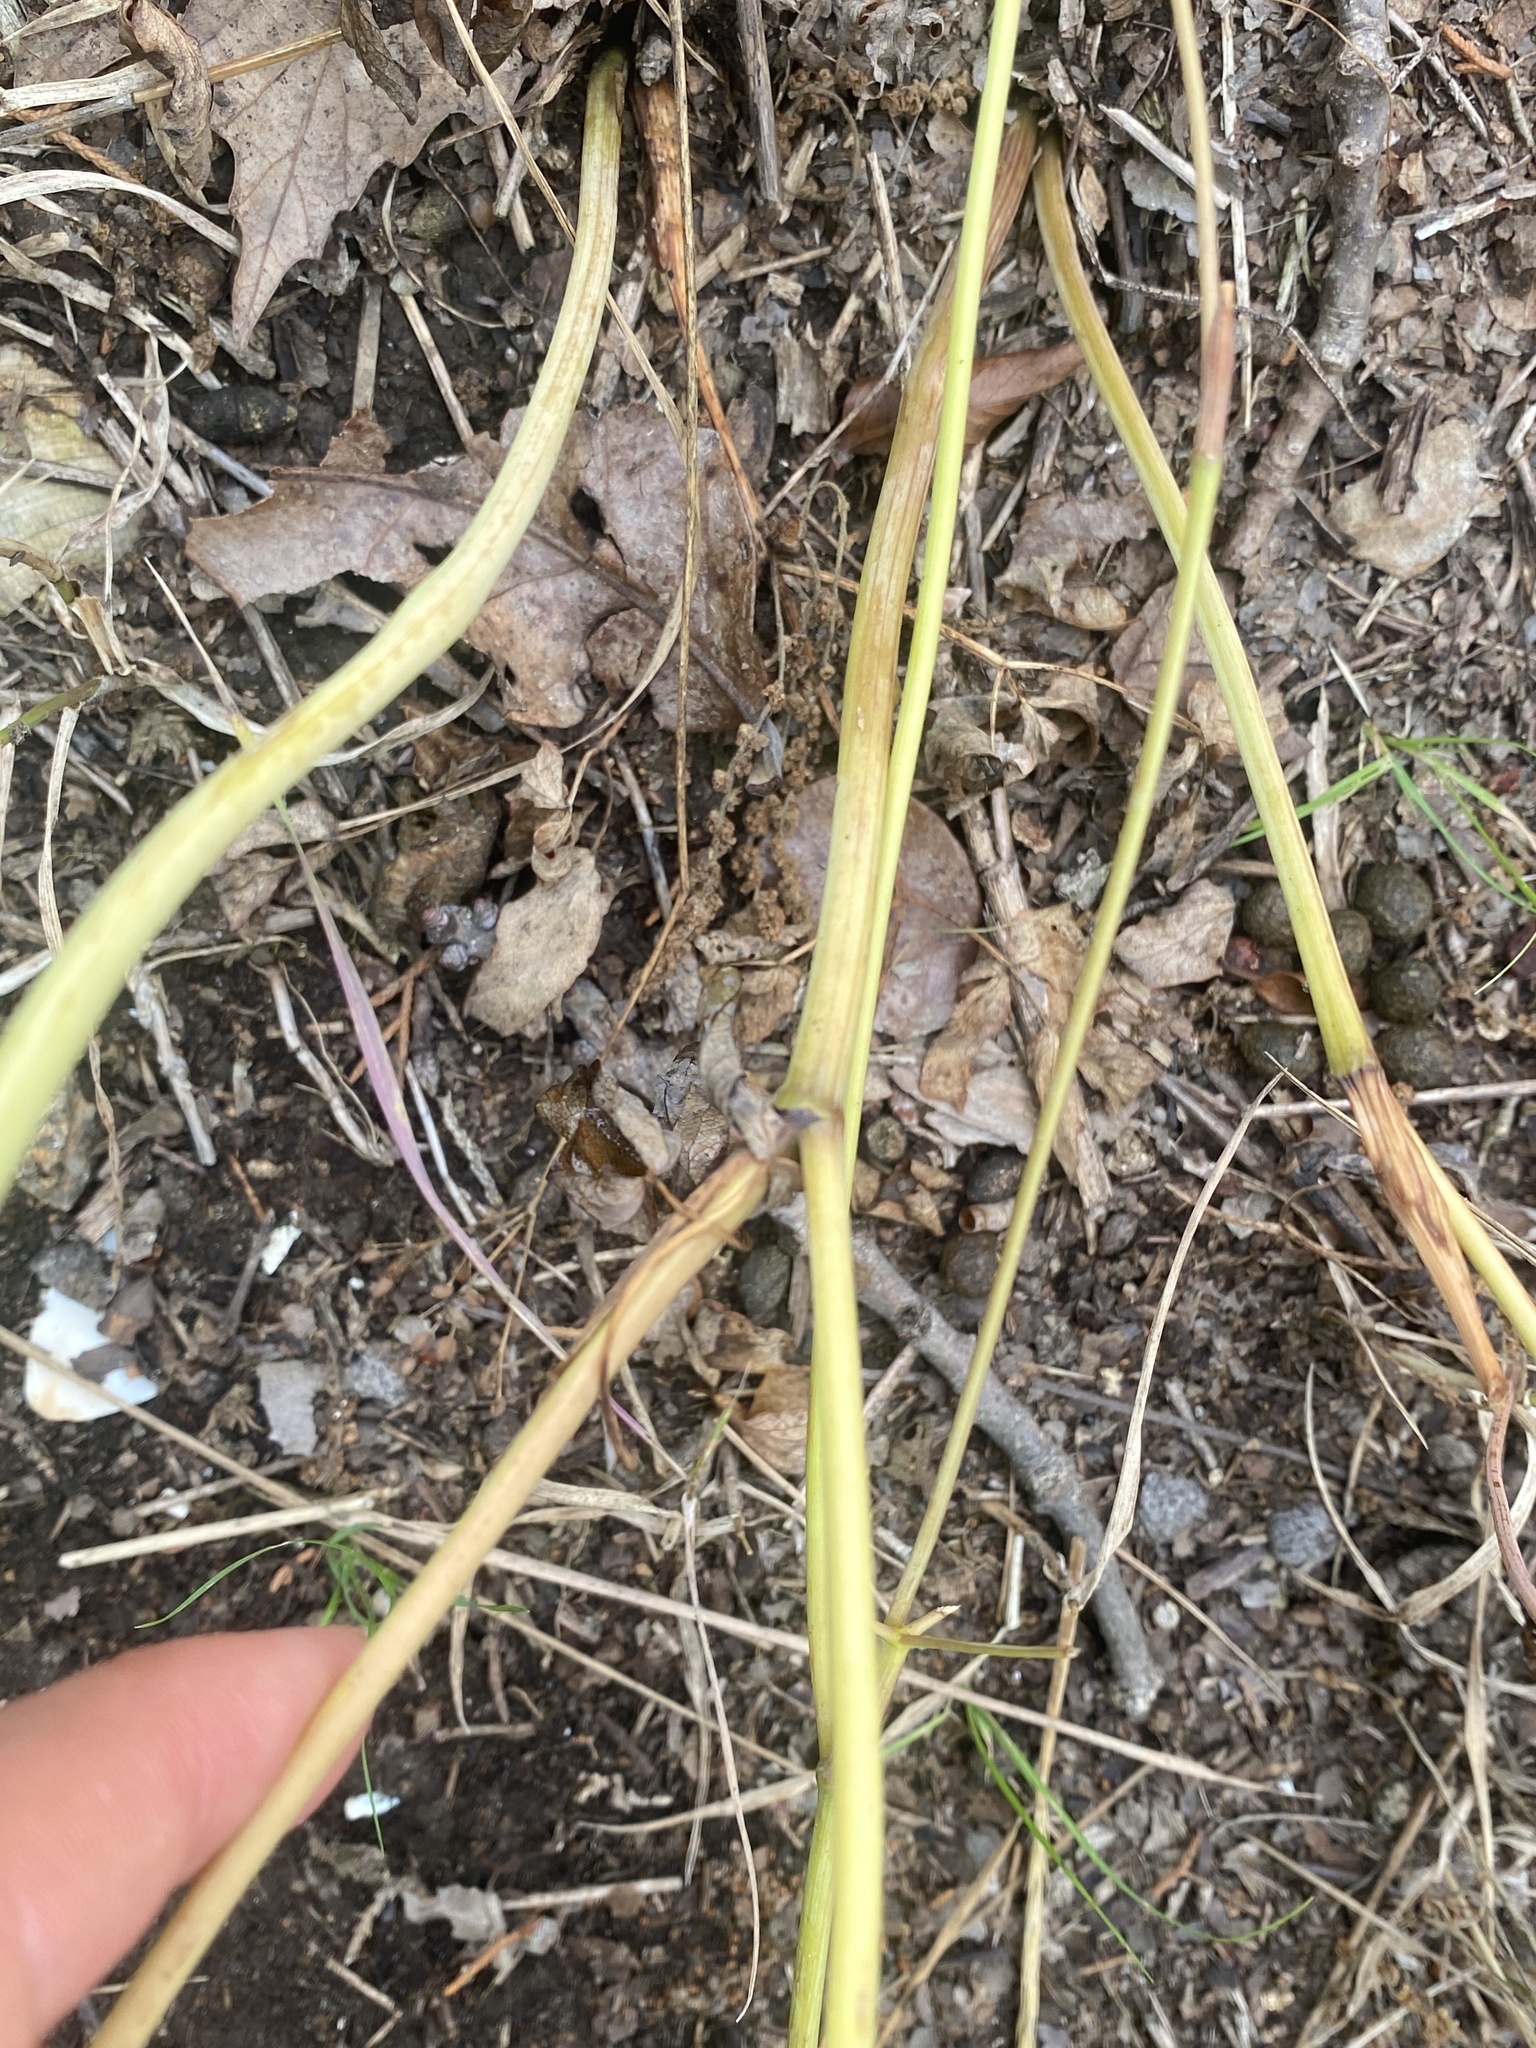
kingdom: Plantae
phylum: Tracheophyta
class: Magnoliopsida
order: Apiales
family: Apiaceae
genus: Taenidia
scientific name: Taenidia integerrima
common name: Golden alexander
